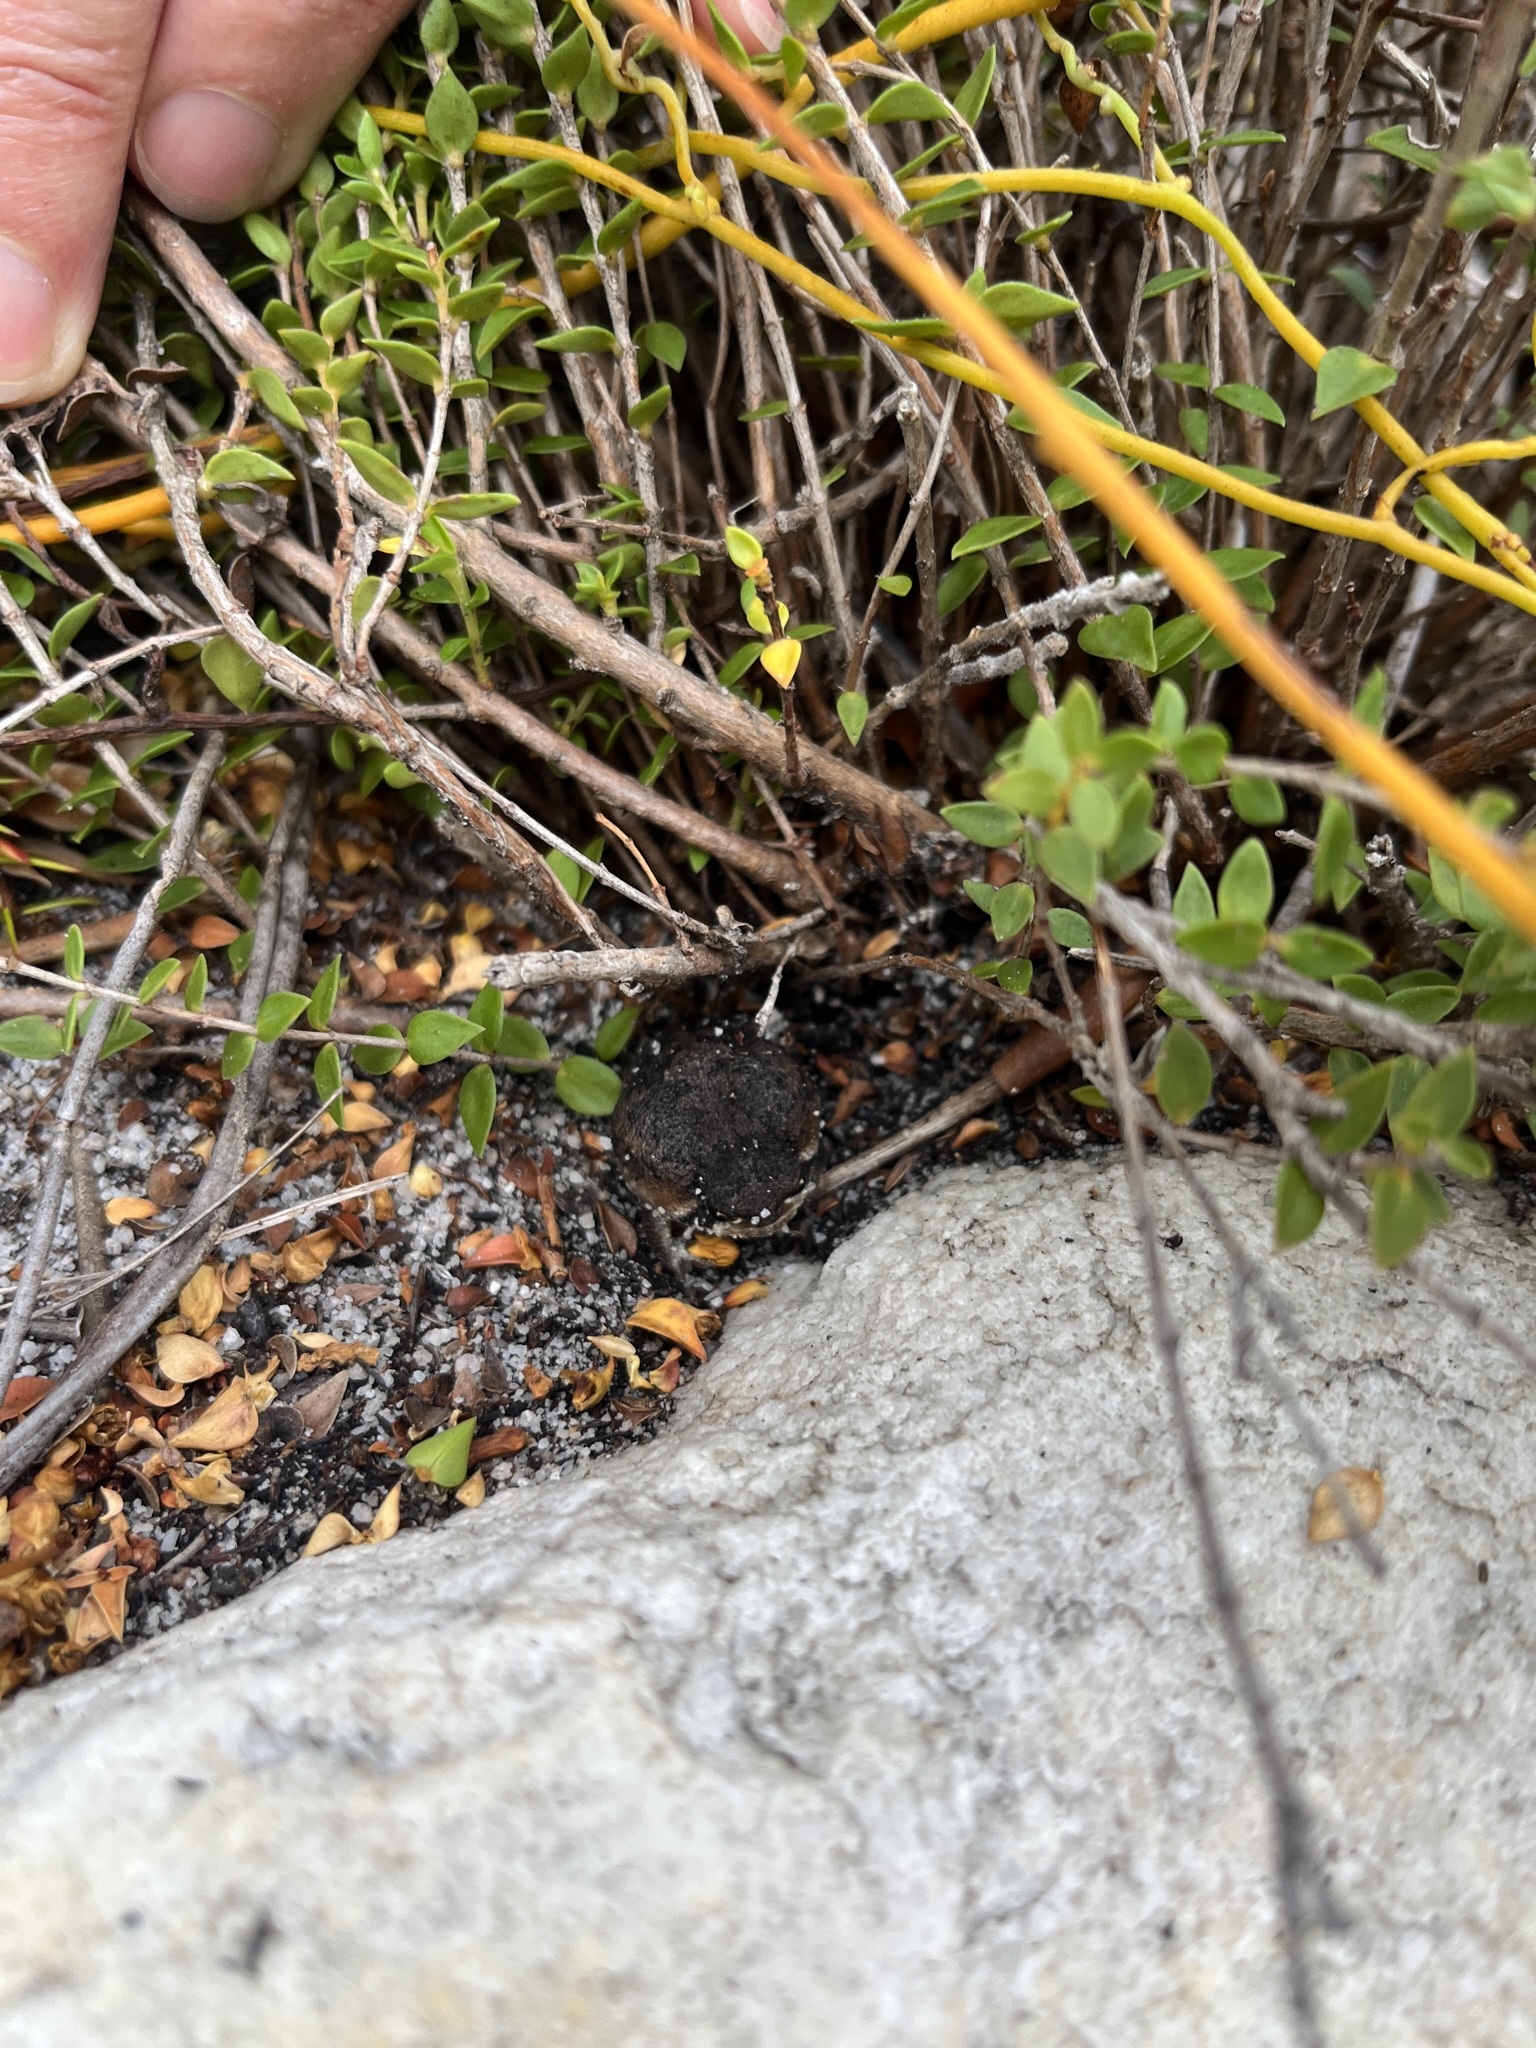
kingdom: Animalia
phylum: Chordata
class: Amphibia
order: Anura
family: Brevicipitidae
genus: Breviceps
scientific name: Breviceps montanus
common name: Mountain rain frog
